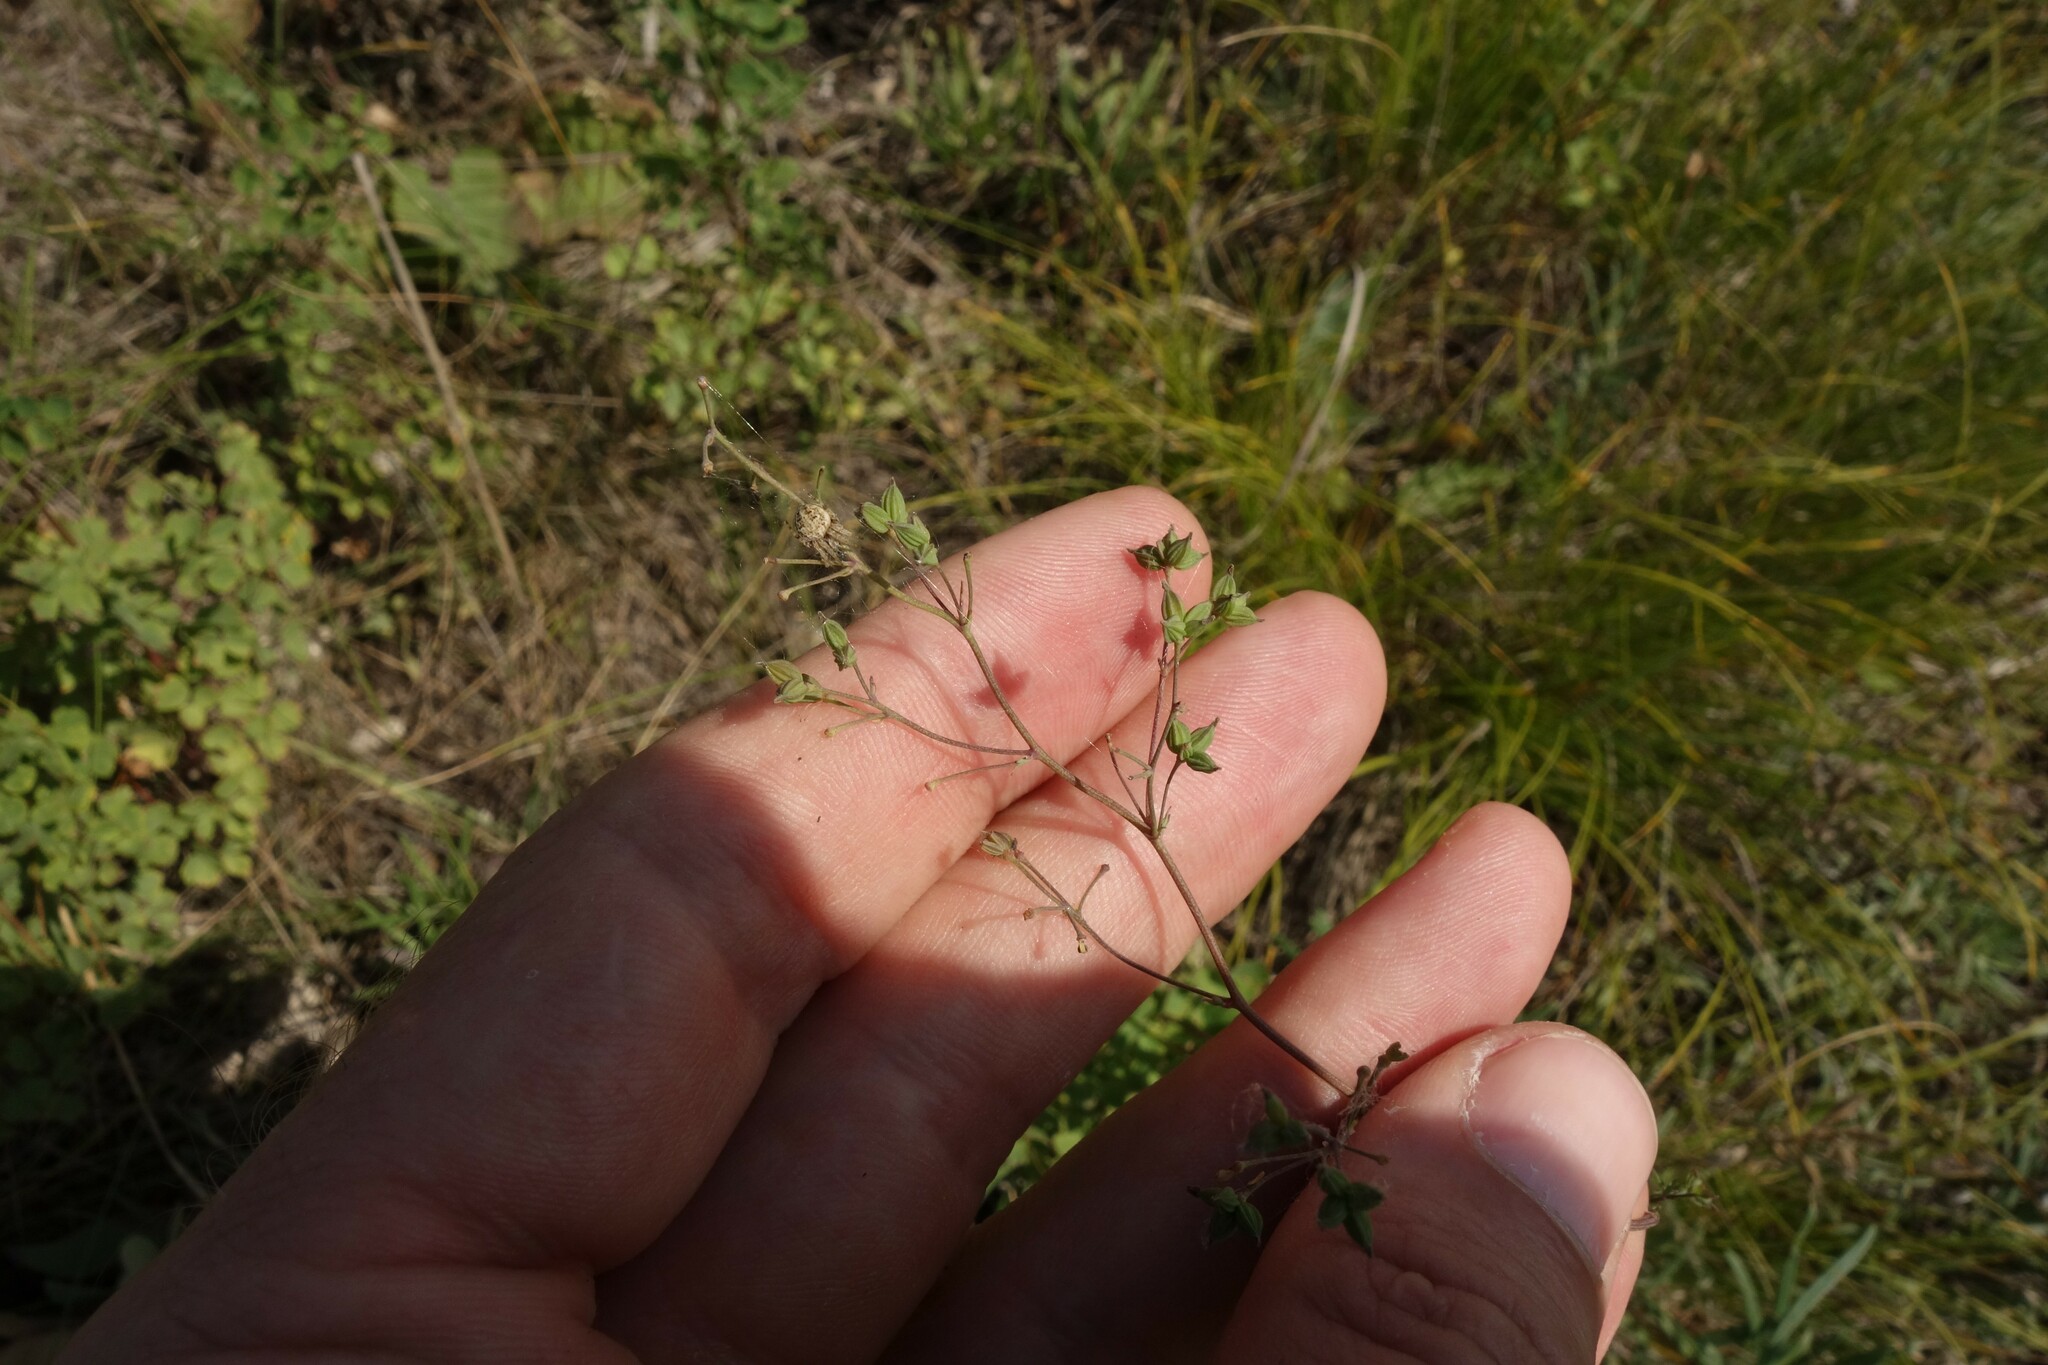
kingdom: Plantae
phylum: Tracheophyta
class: Magnoliopsida
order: Ranunculales
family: Ranunculaceae
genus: Thalictrum
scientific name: Thalictrum minus
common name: Lesser meadow-rue
